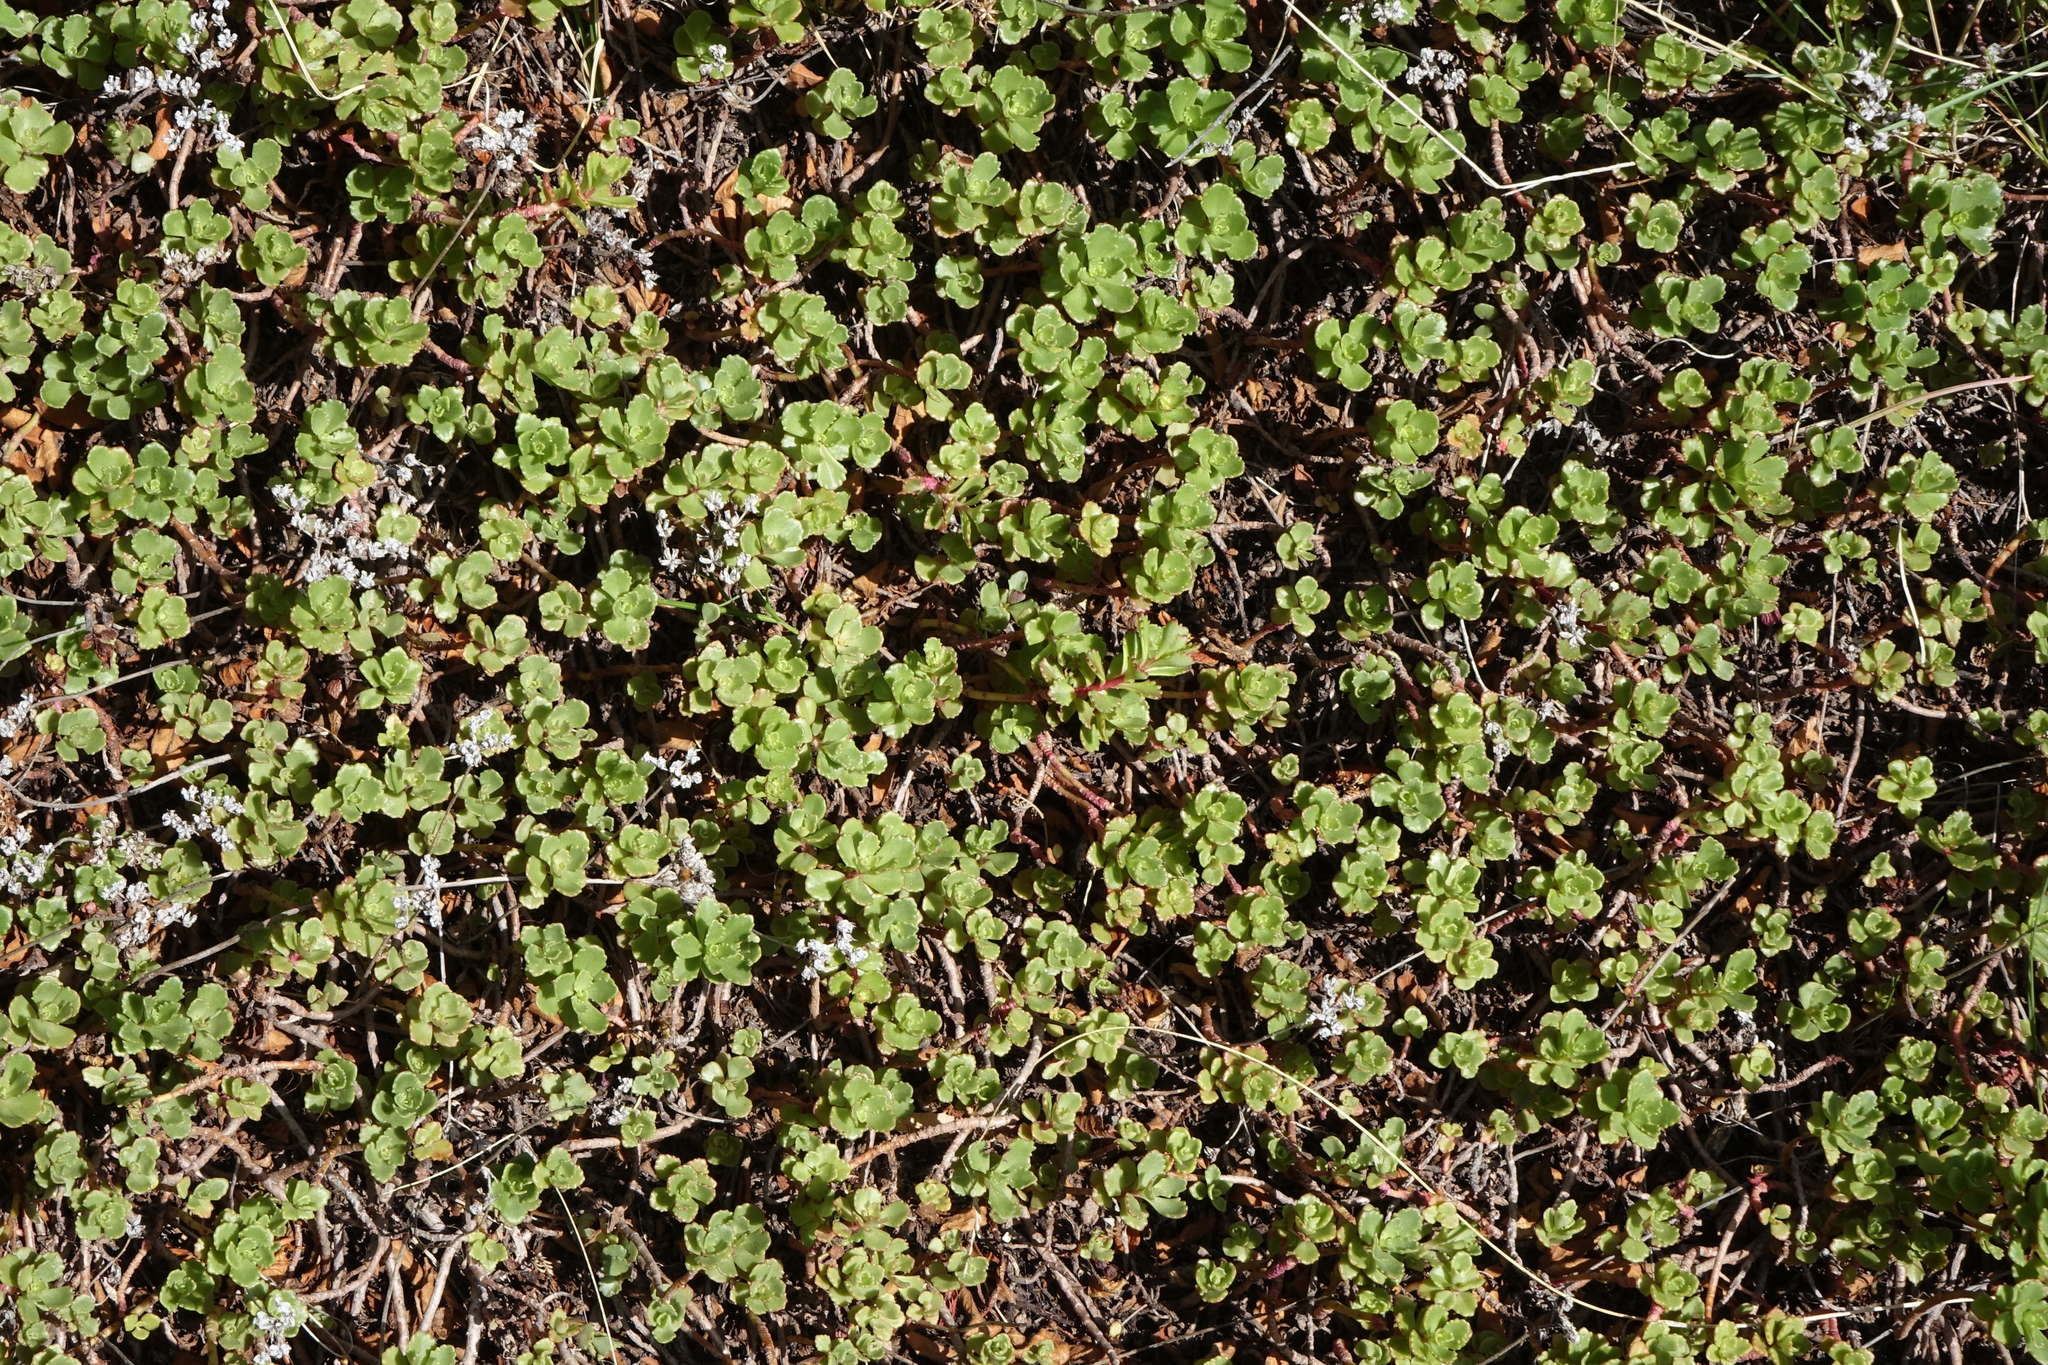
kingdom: Plantae
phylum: Tracheophyta
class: Magnoliopsida
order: Saxifragales
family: Crassulaceae
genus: Phedimus
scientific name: Phedimus hybridus
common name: Hybrid stonecrop
